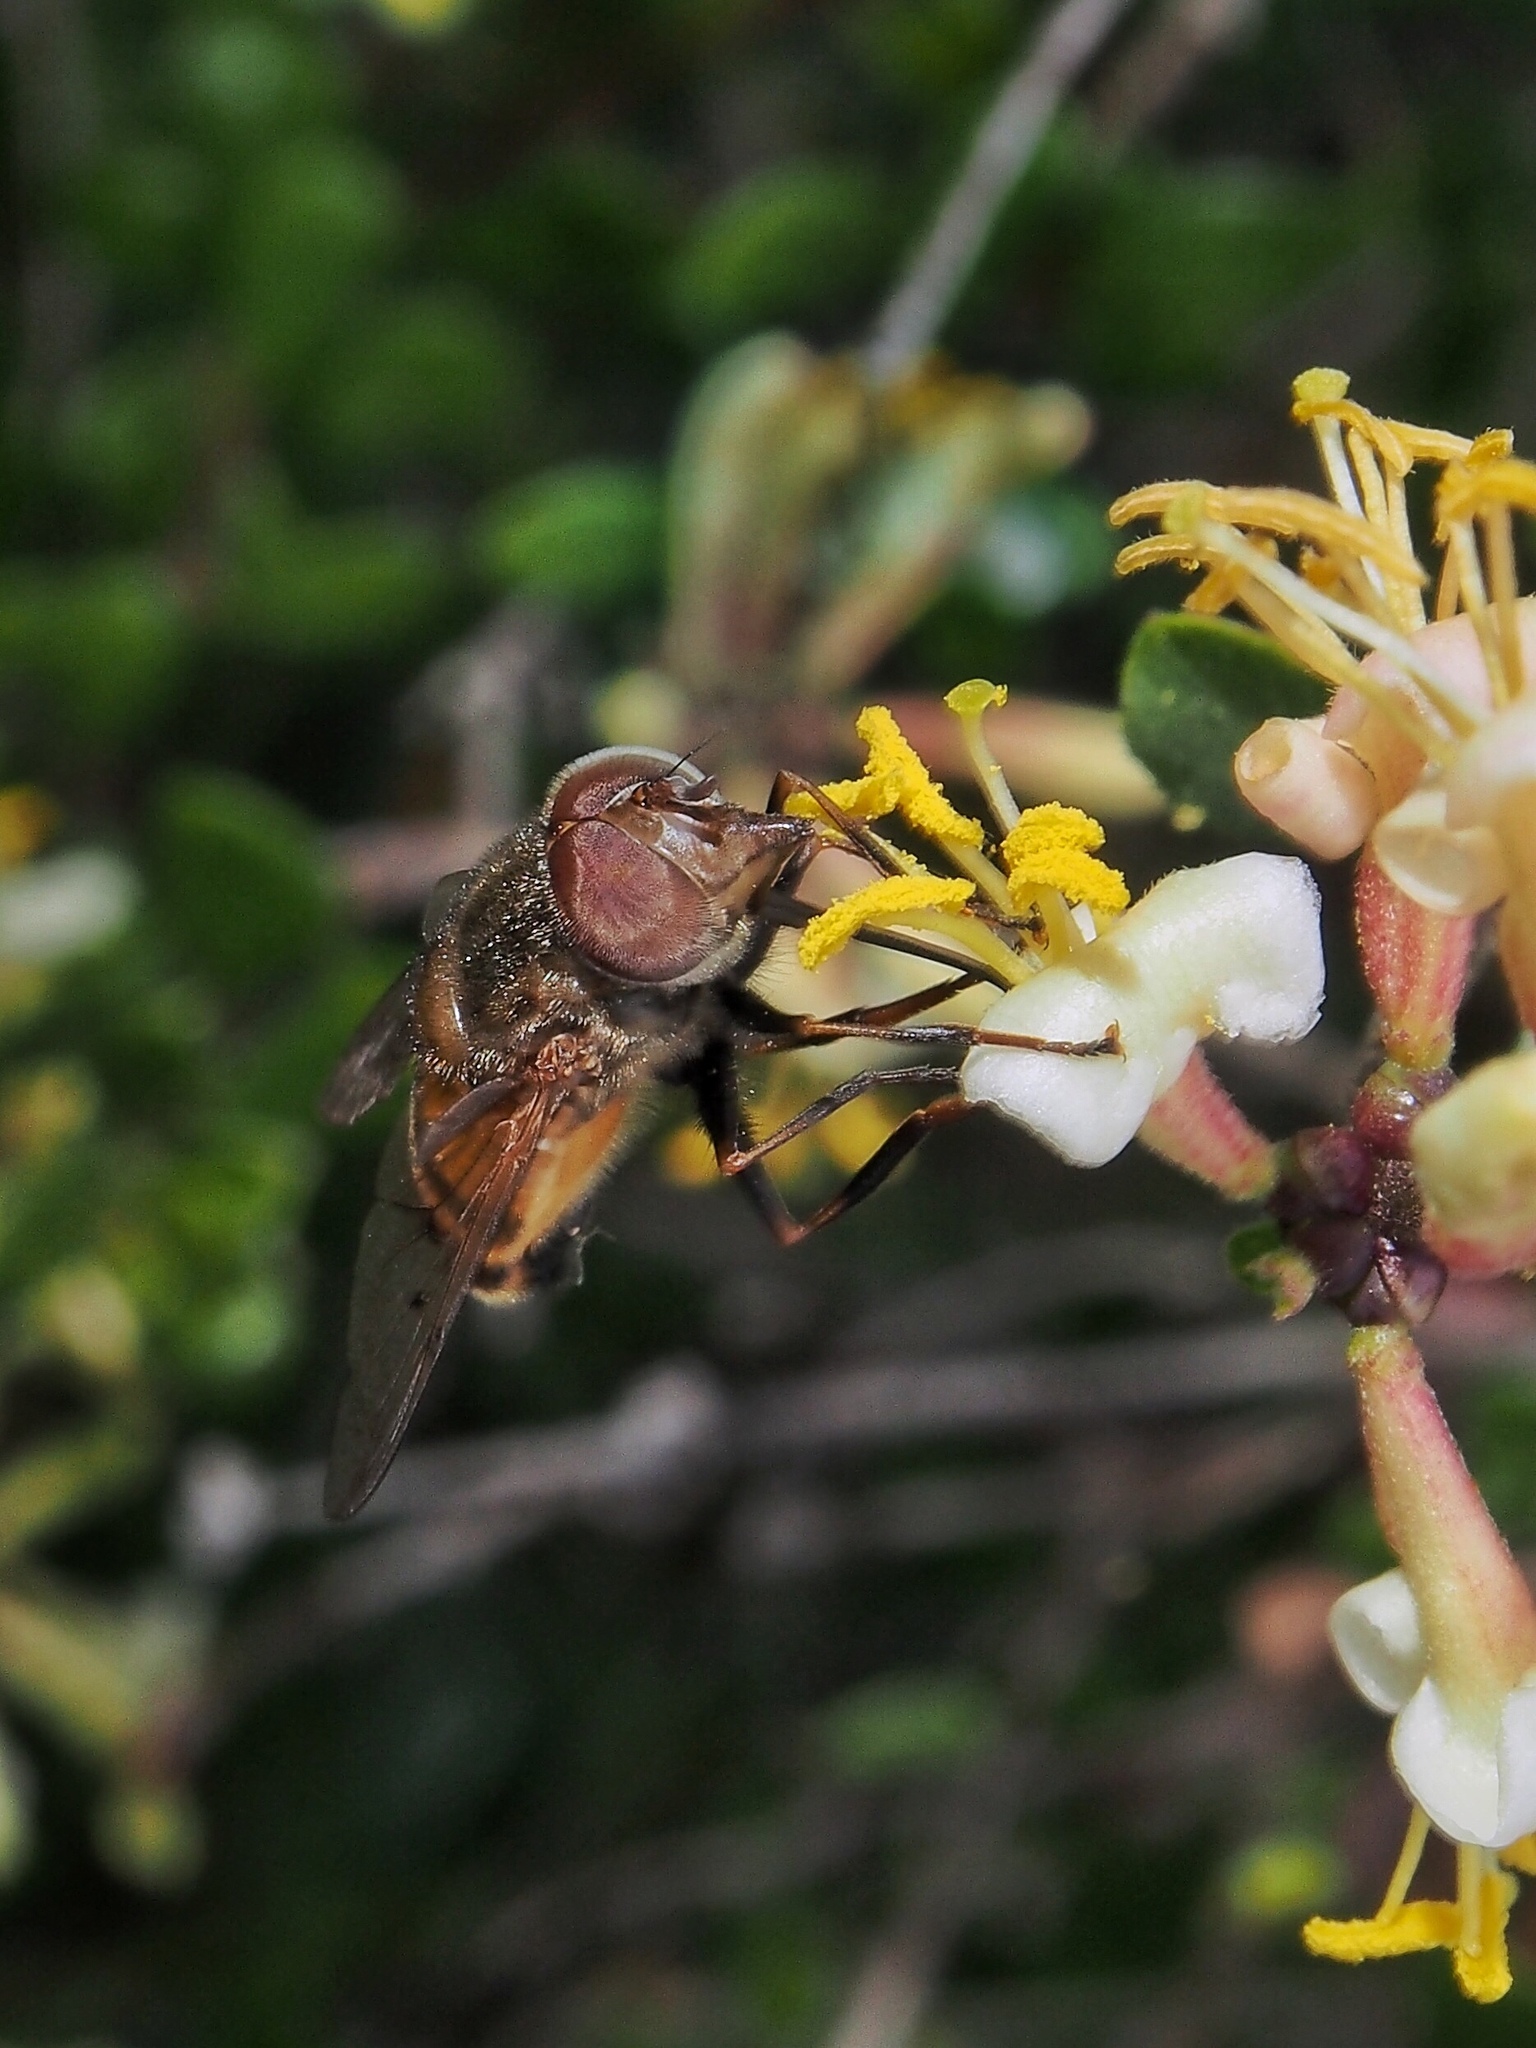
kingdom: Animalia
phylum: Arthropoda
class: Insecta
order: Diptera
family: Syrphidae
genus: Copestylum
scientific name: Copestylum haagii
